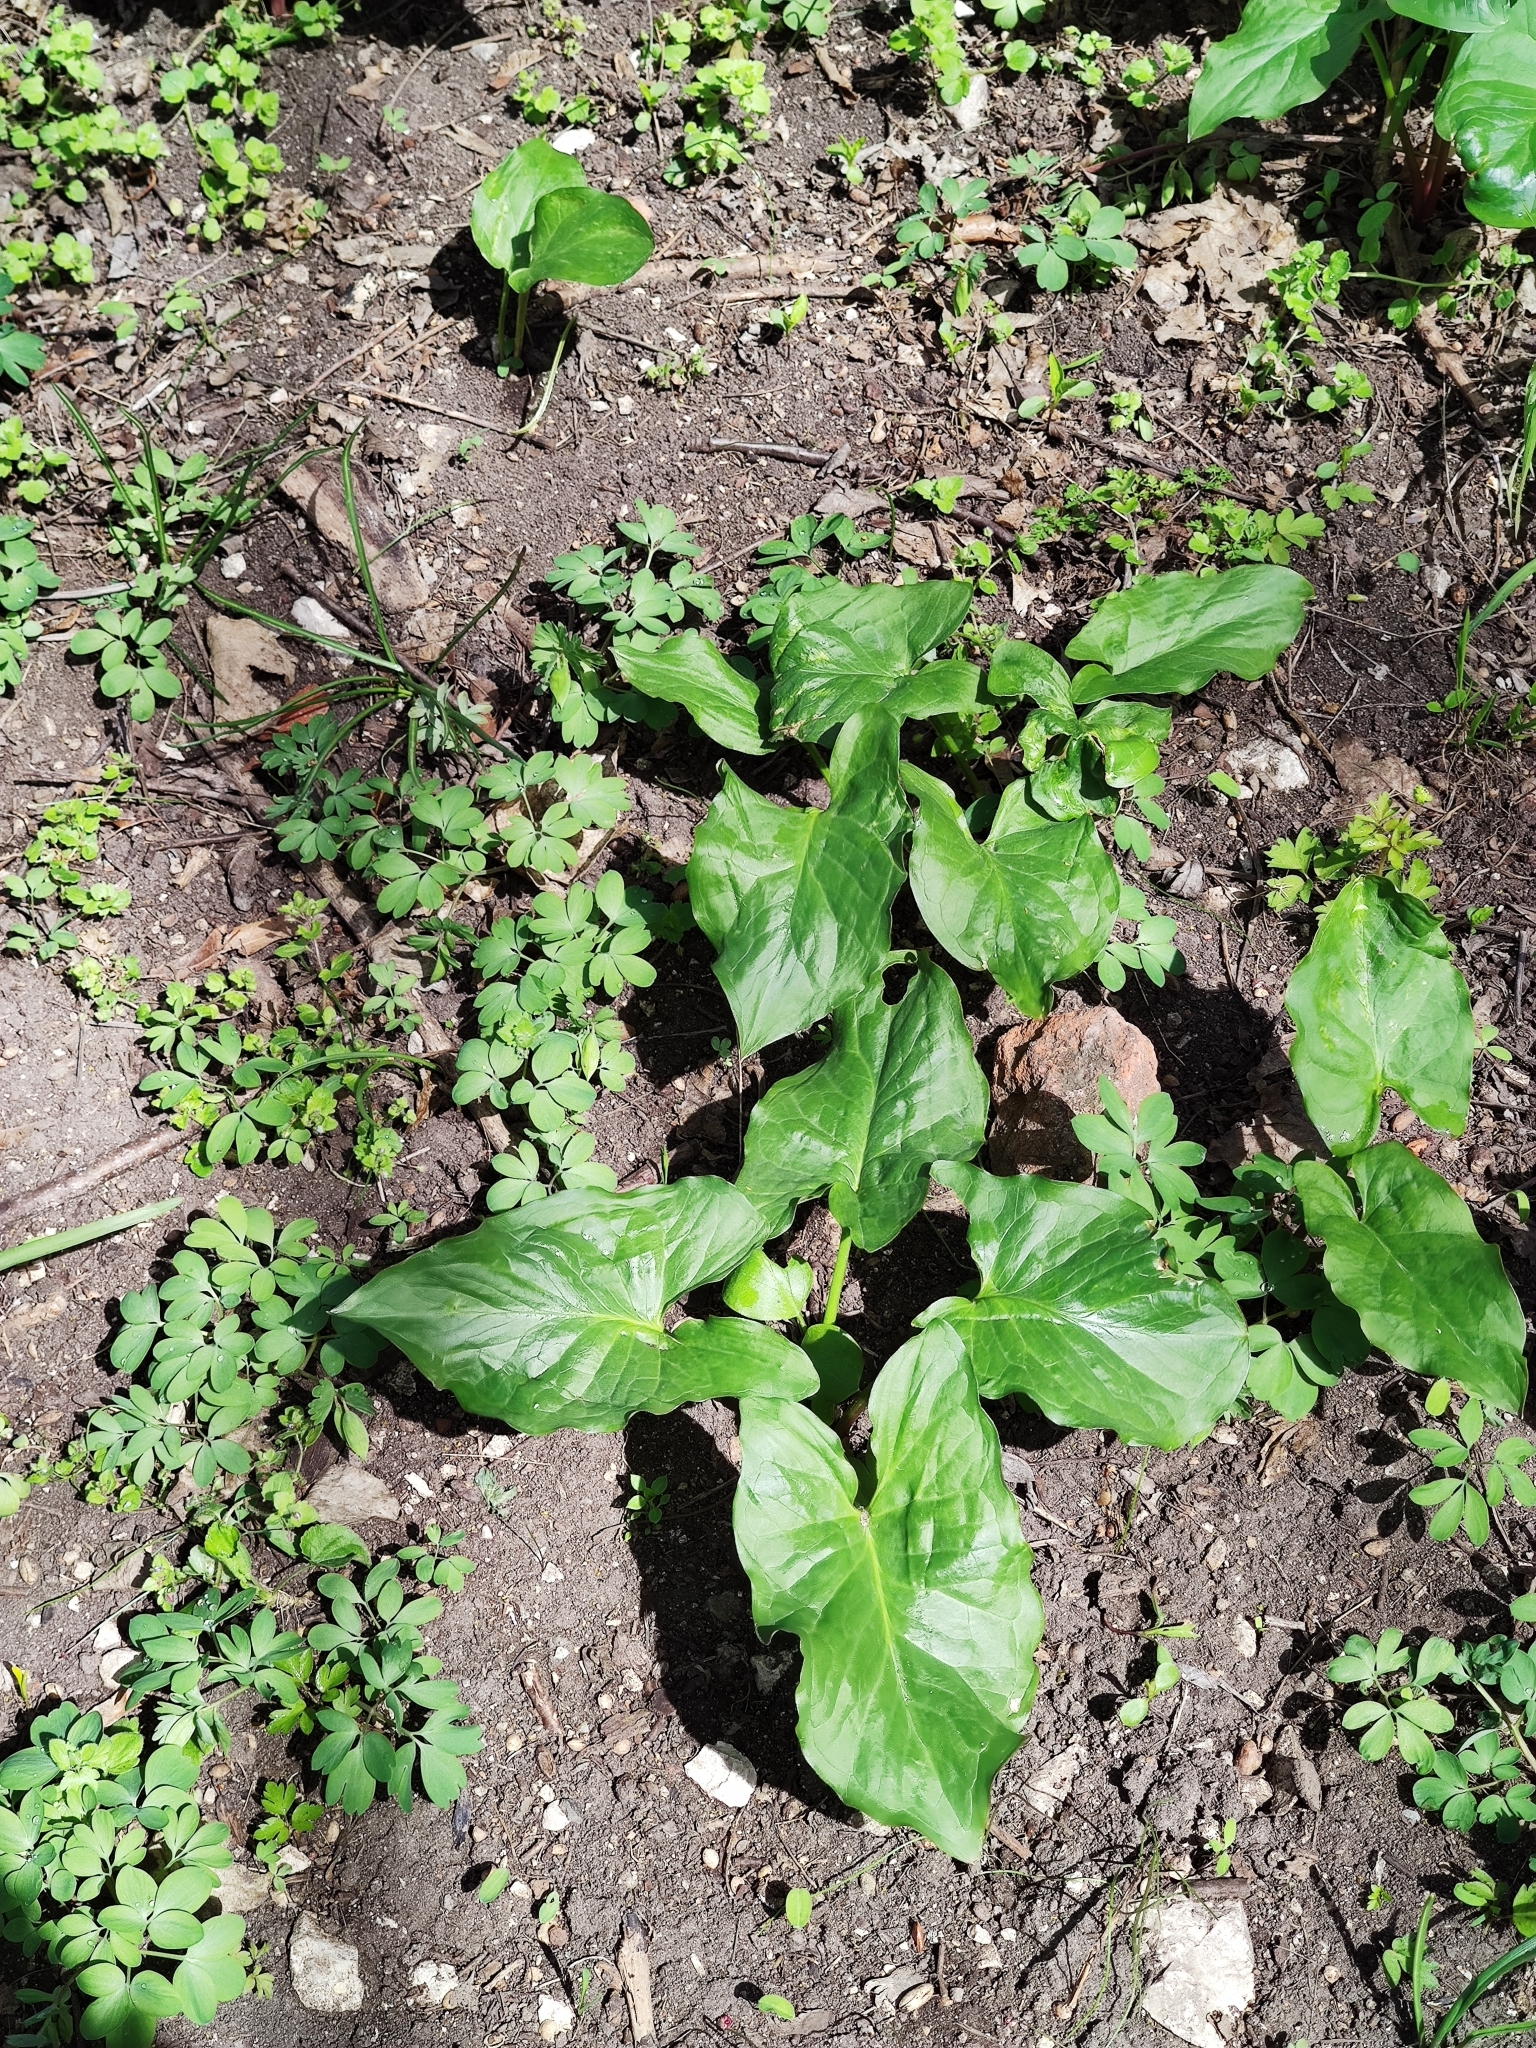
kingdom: Plantae
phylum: Tracheophyta
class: Liliopsida
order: Alismatales
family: Araceae
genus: Arum
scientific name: Arum cylindraceum
